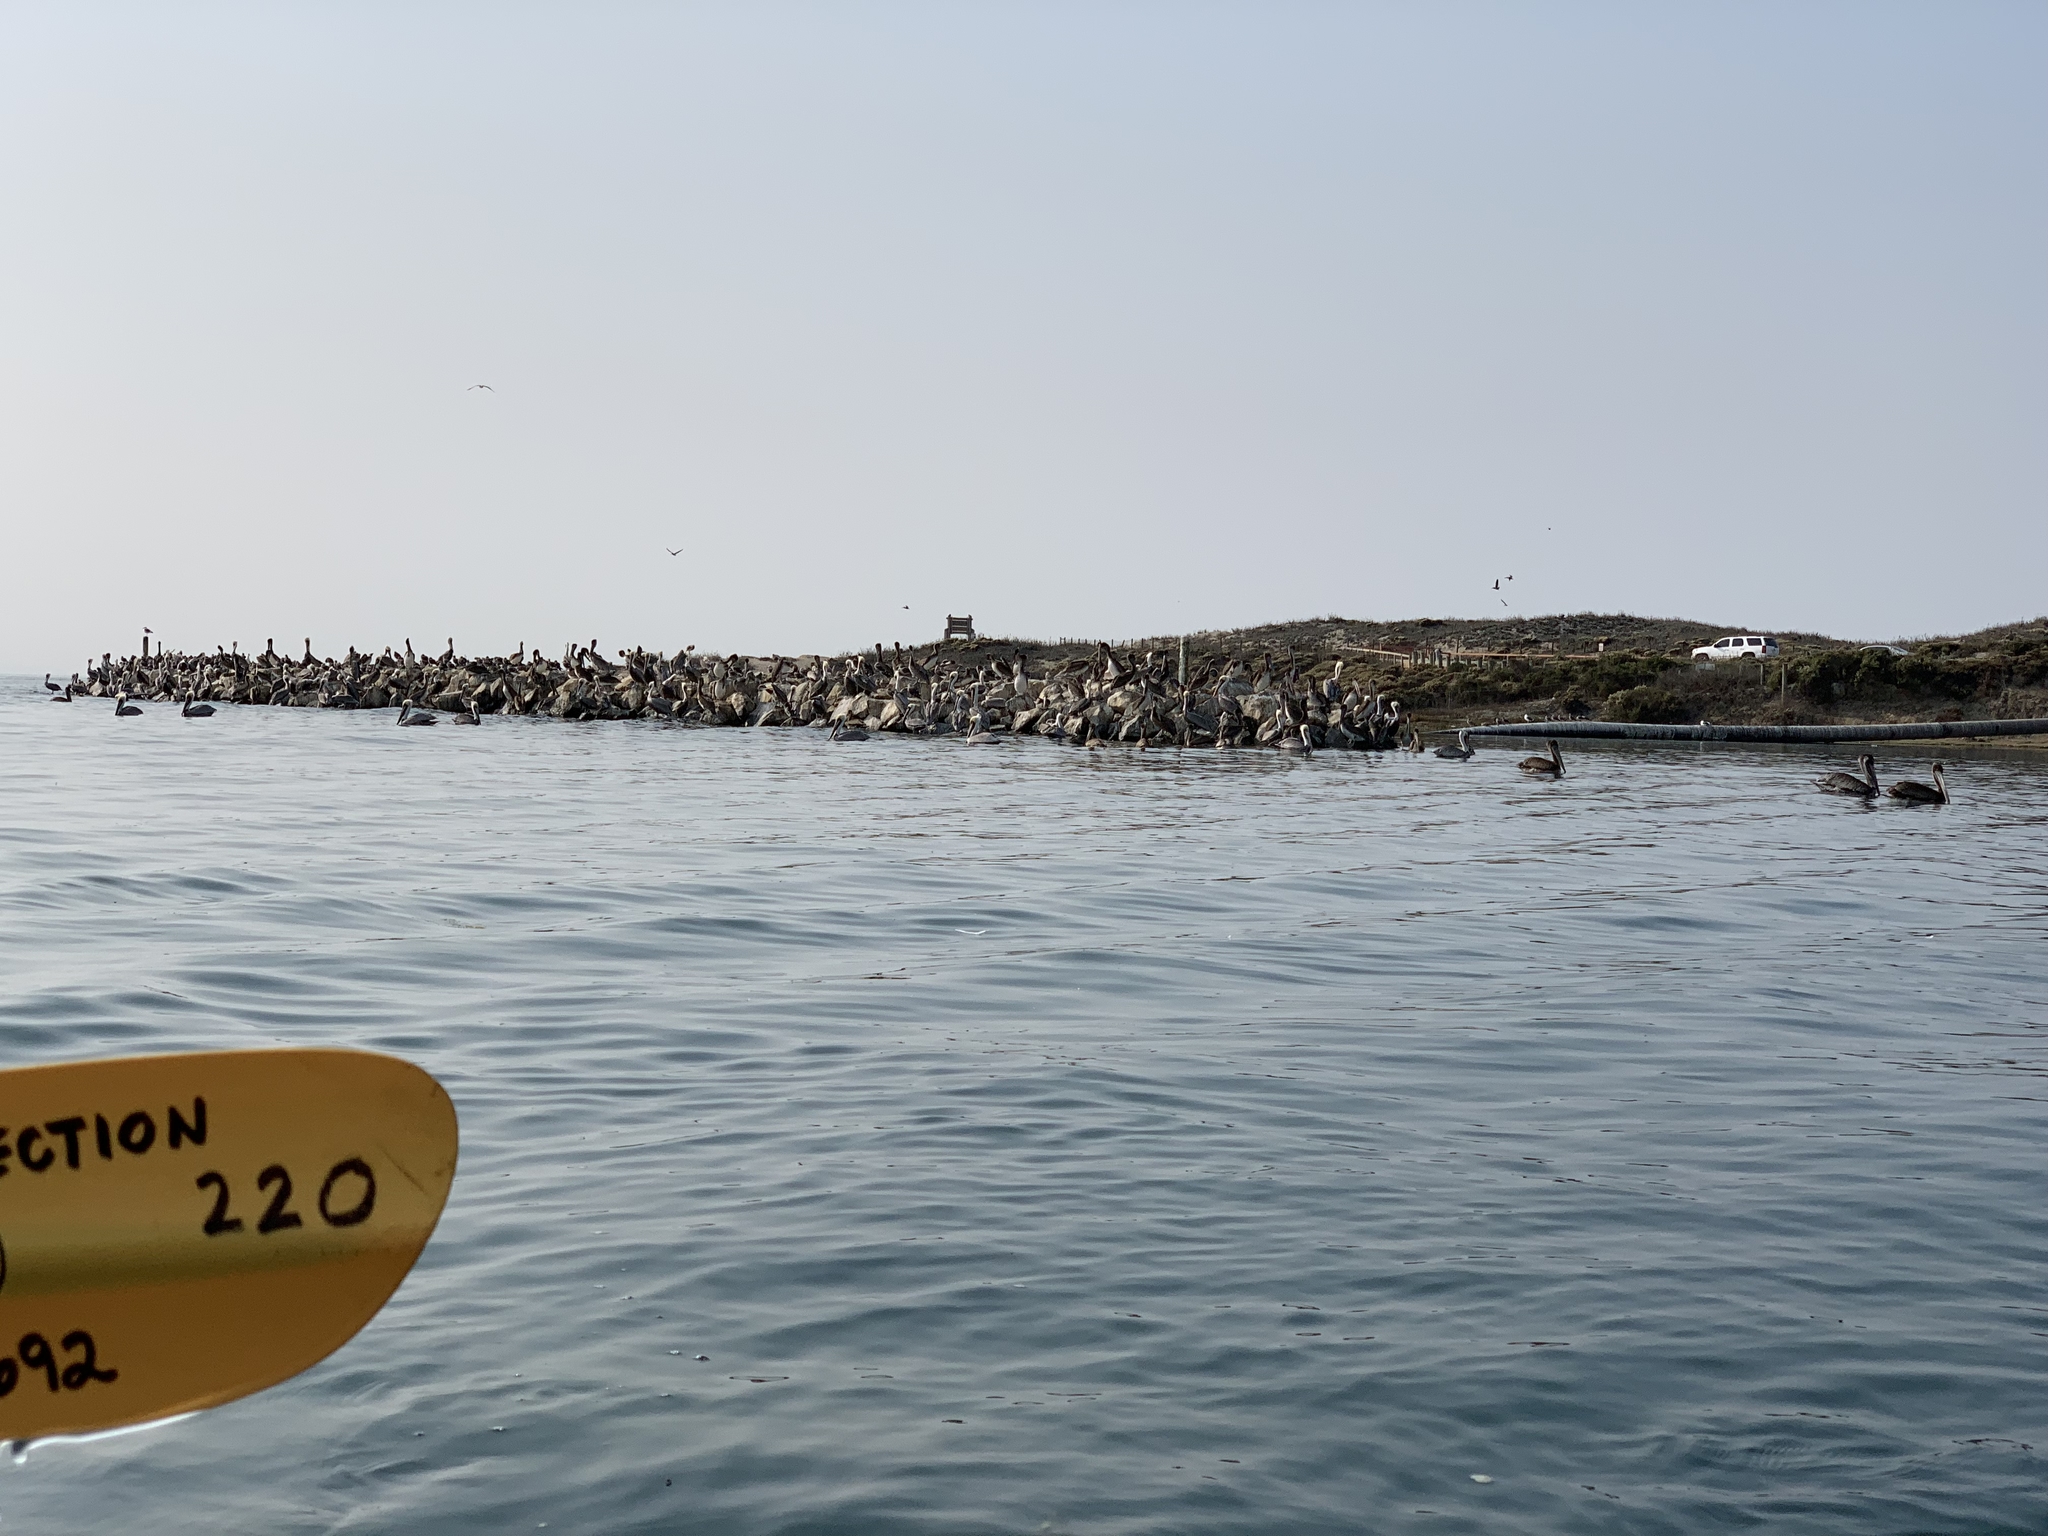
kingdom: Animalia
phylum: Chordata
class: Aves
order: Pelecaniformes
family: Pelecanidae
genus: Pelecanus
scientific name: Pelecanus occidentalis
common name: Brown pelican
